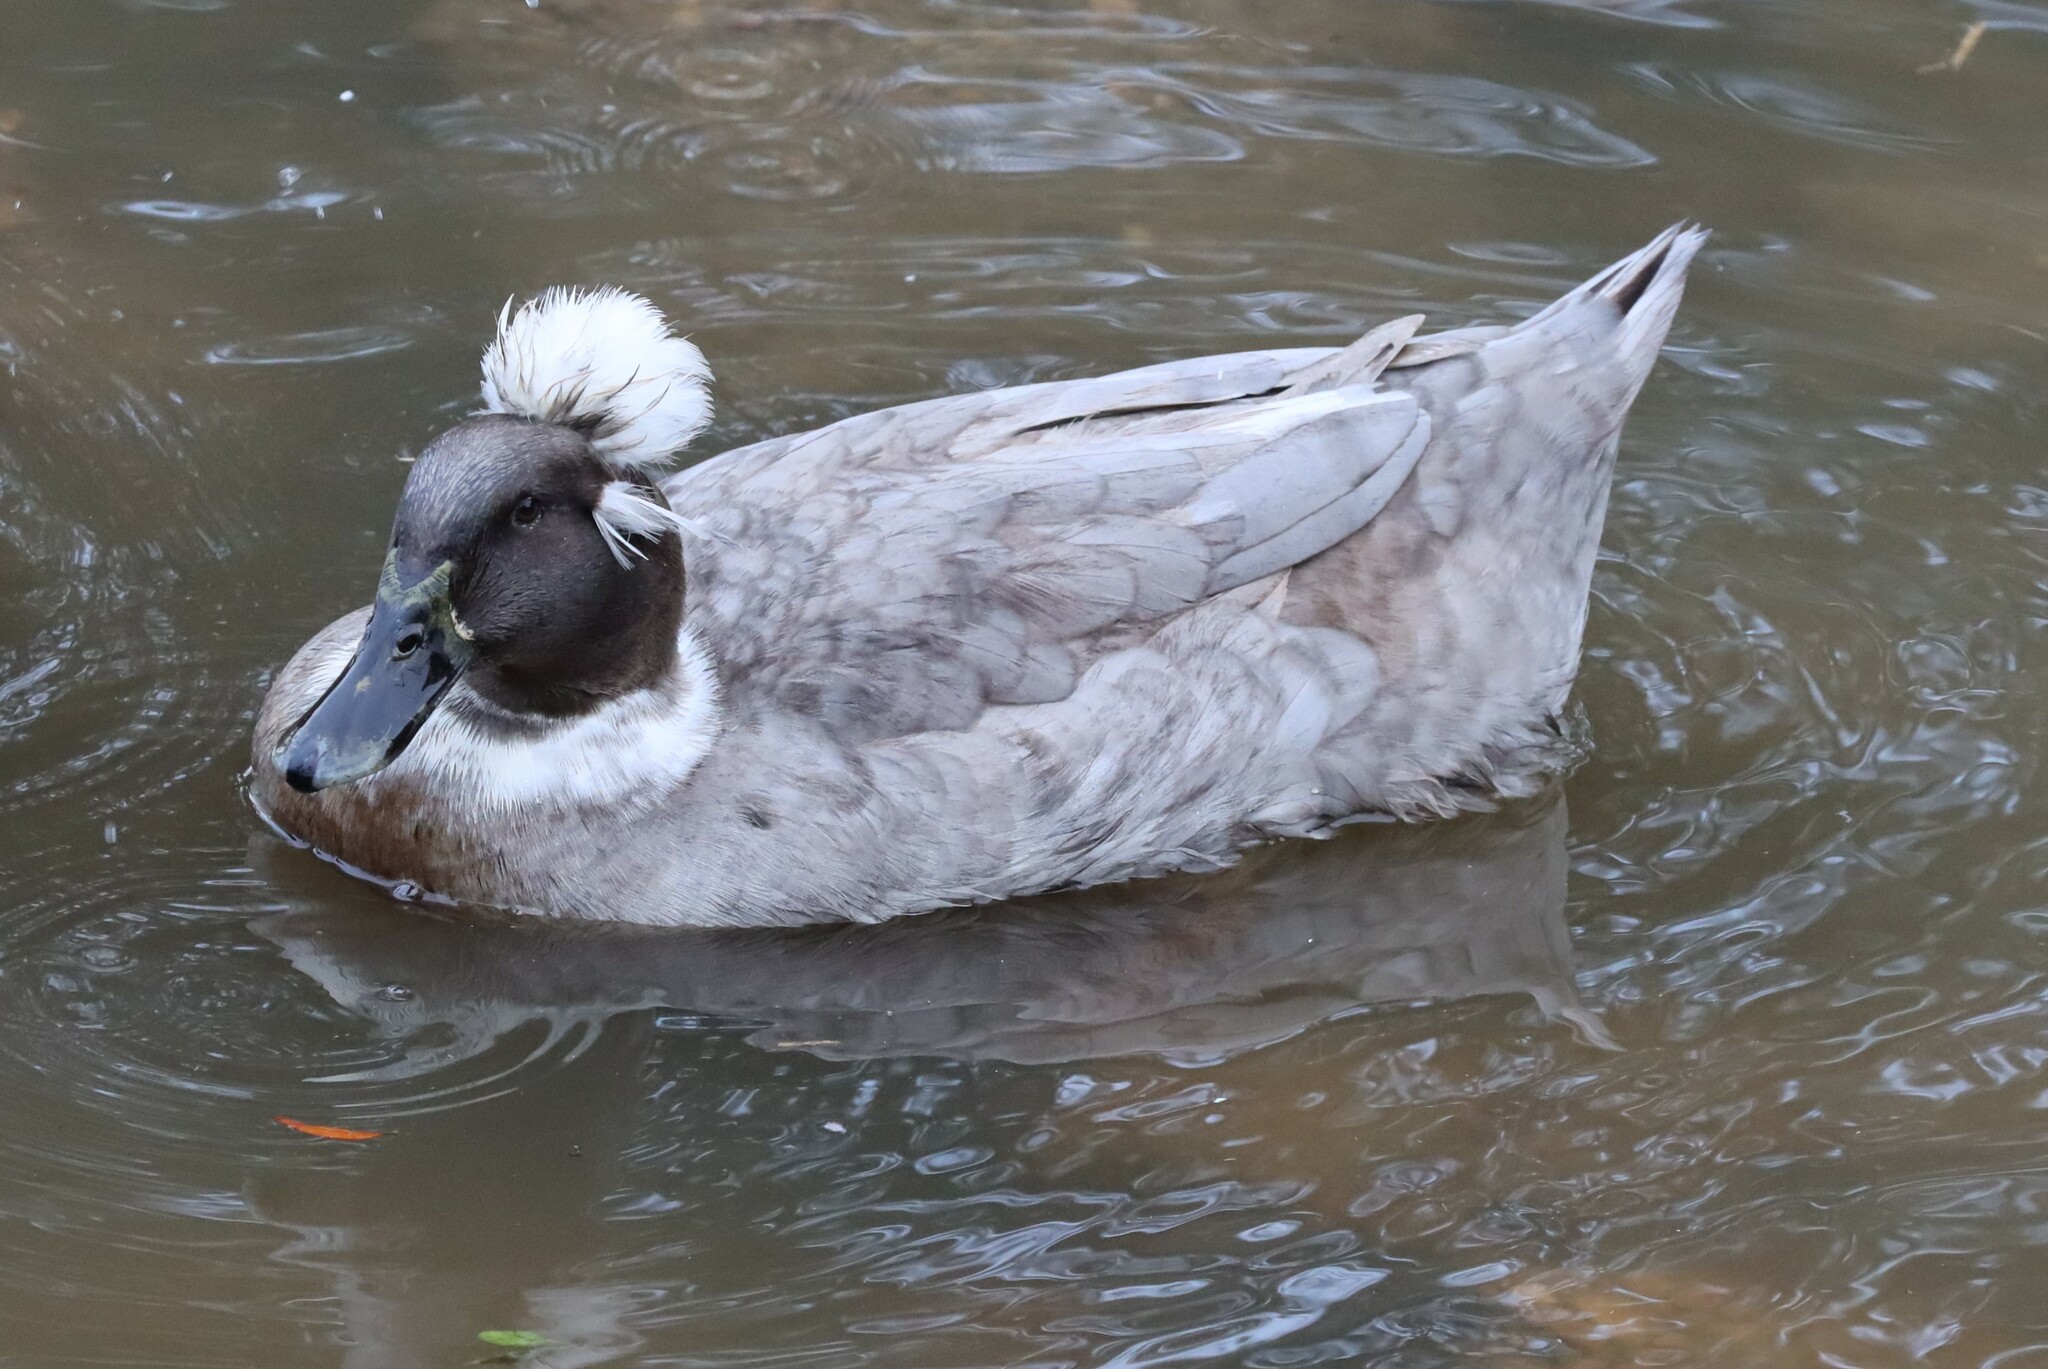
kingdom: Animalia
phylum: Chordata
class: Aves
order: Anseriformes
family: Anatidae
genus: Anas
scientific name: Anas platyrhynchos
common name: Mallard
